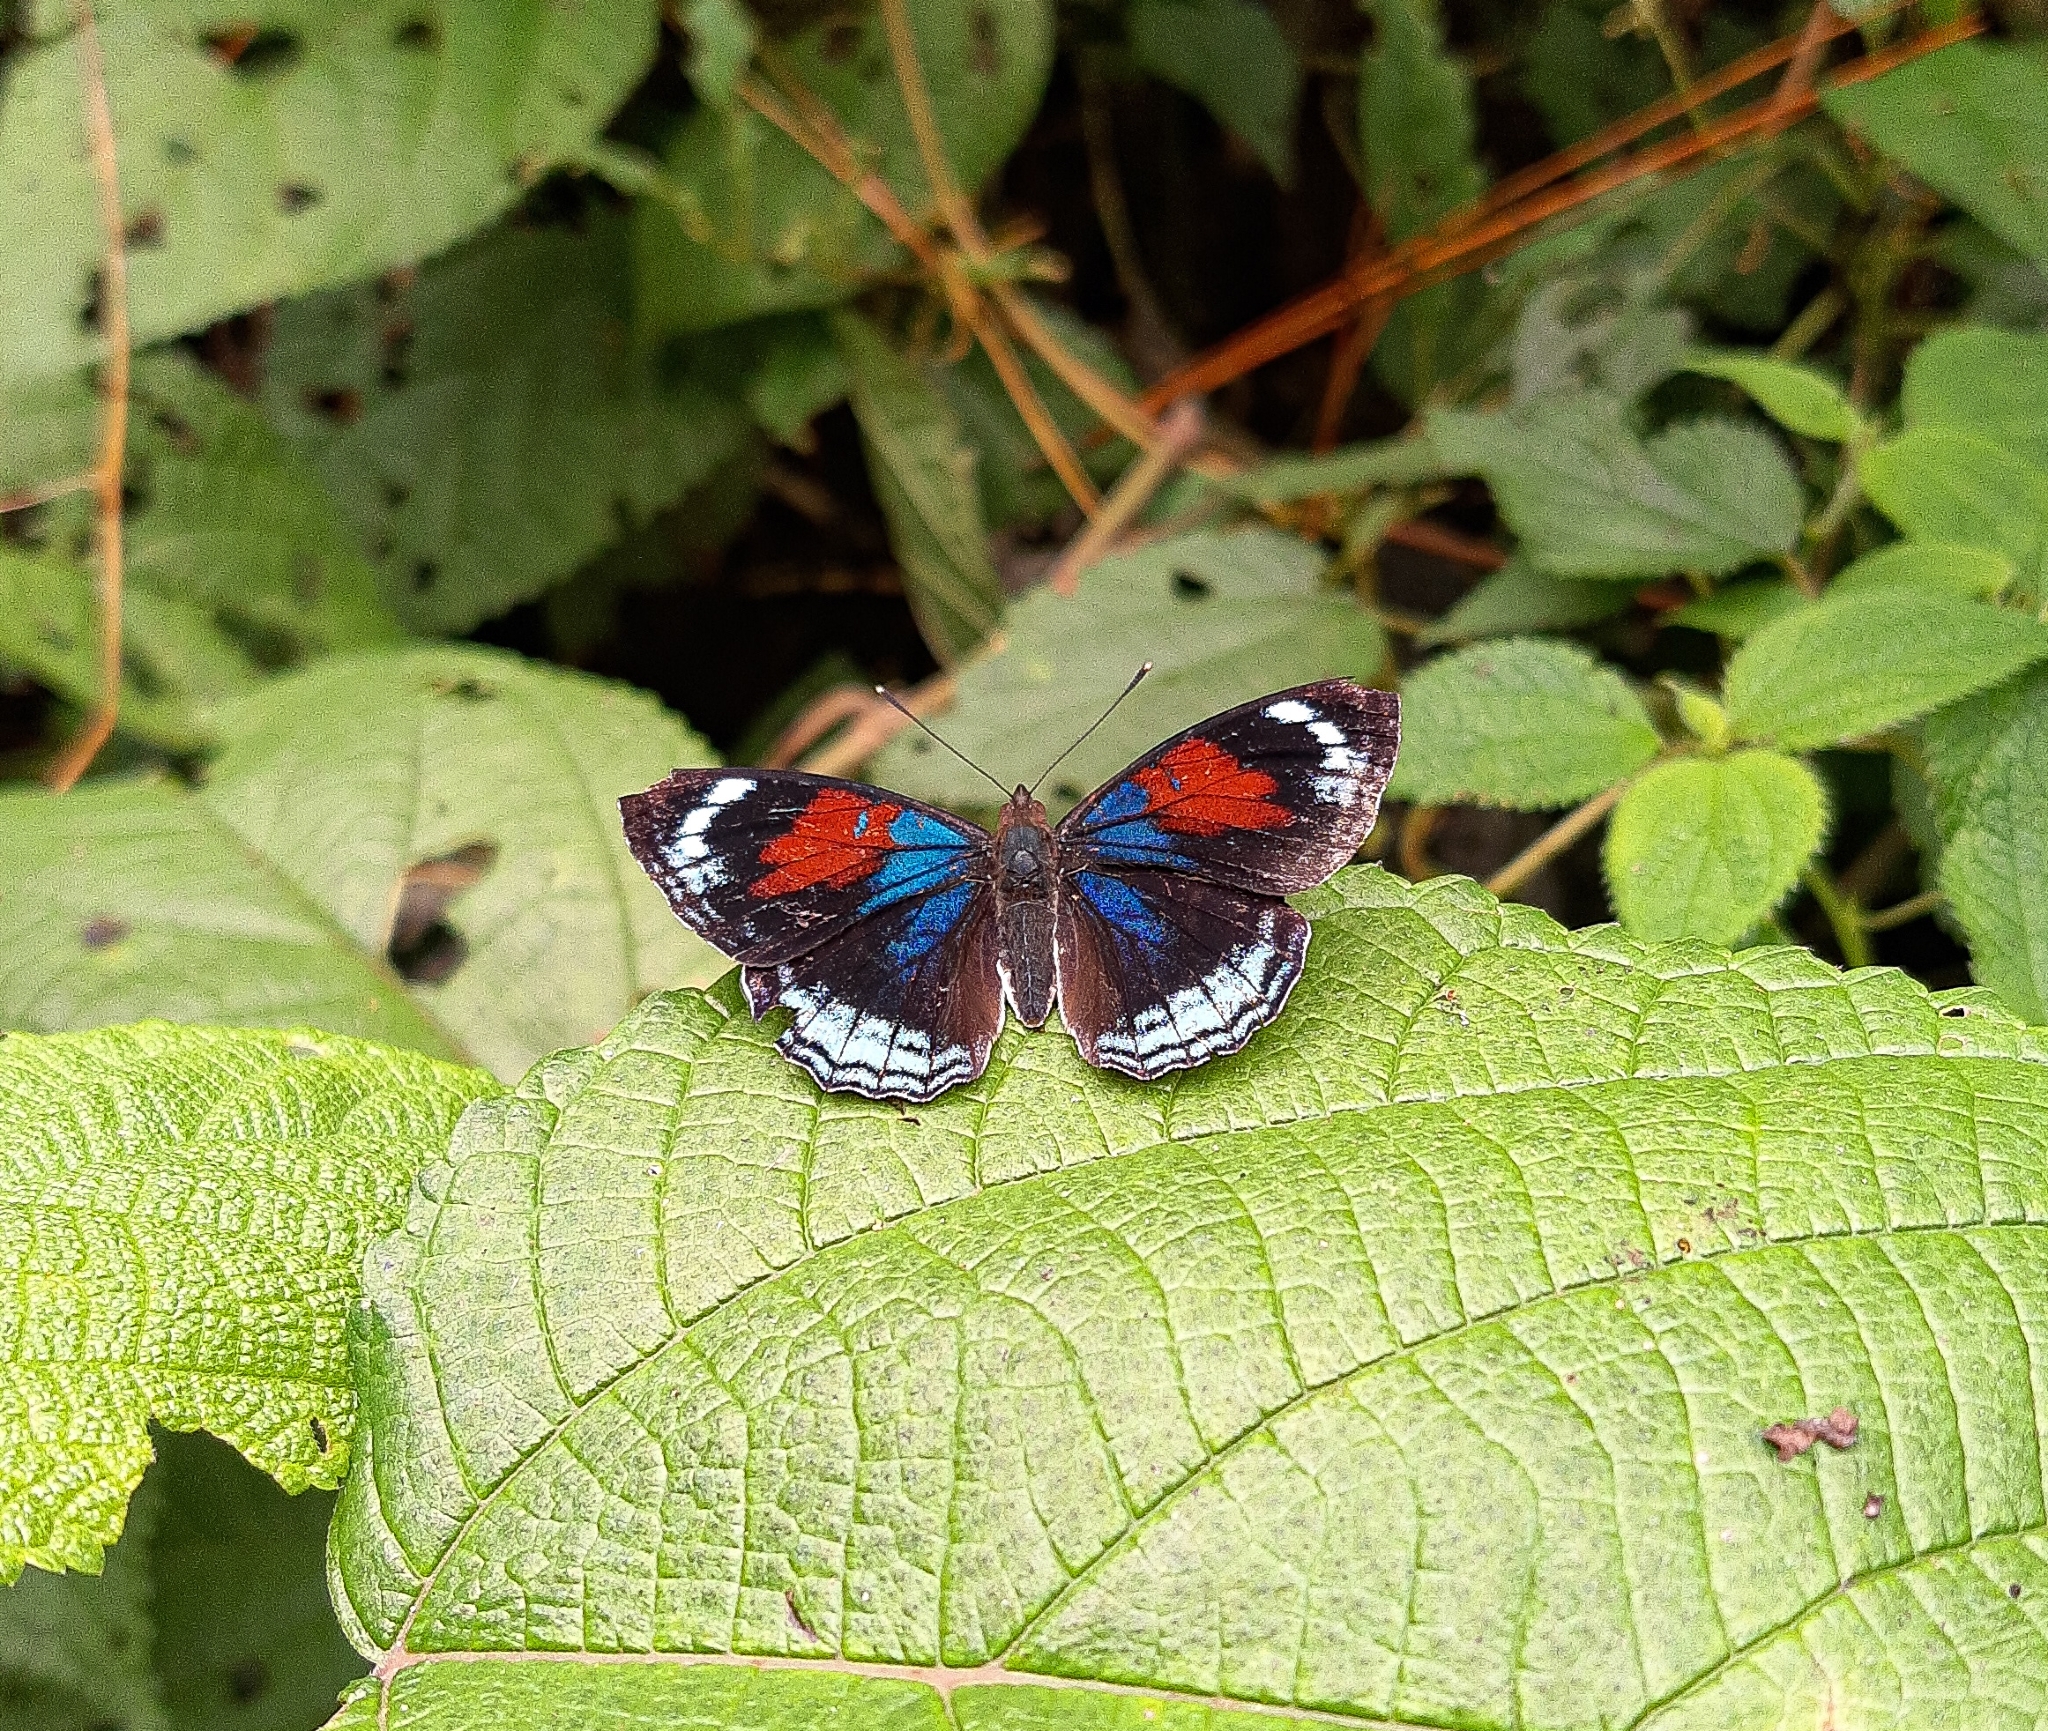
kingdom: Animalia
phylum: Arthropoda
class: Insecta
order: Lepidoptera
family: Nymphalidae
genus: Doxocopa
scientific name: Doxocopa zunilda
